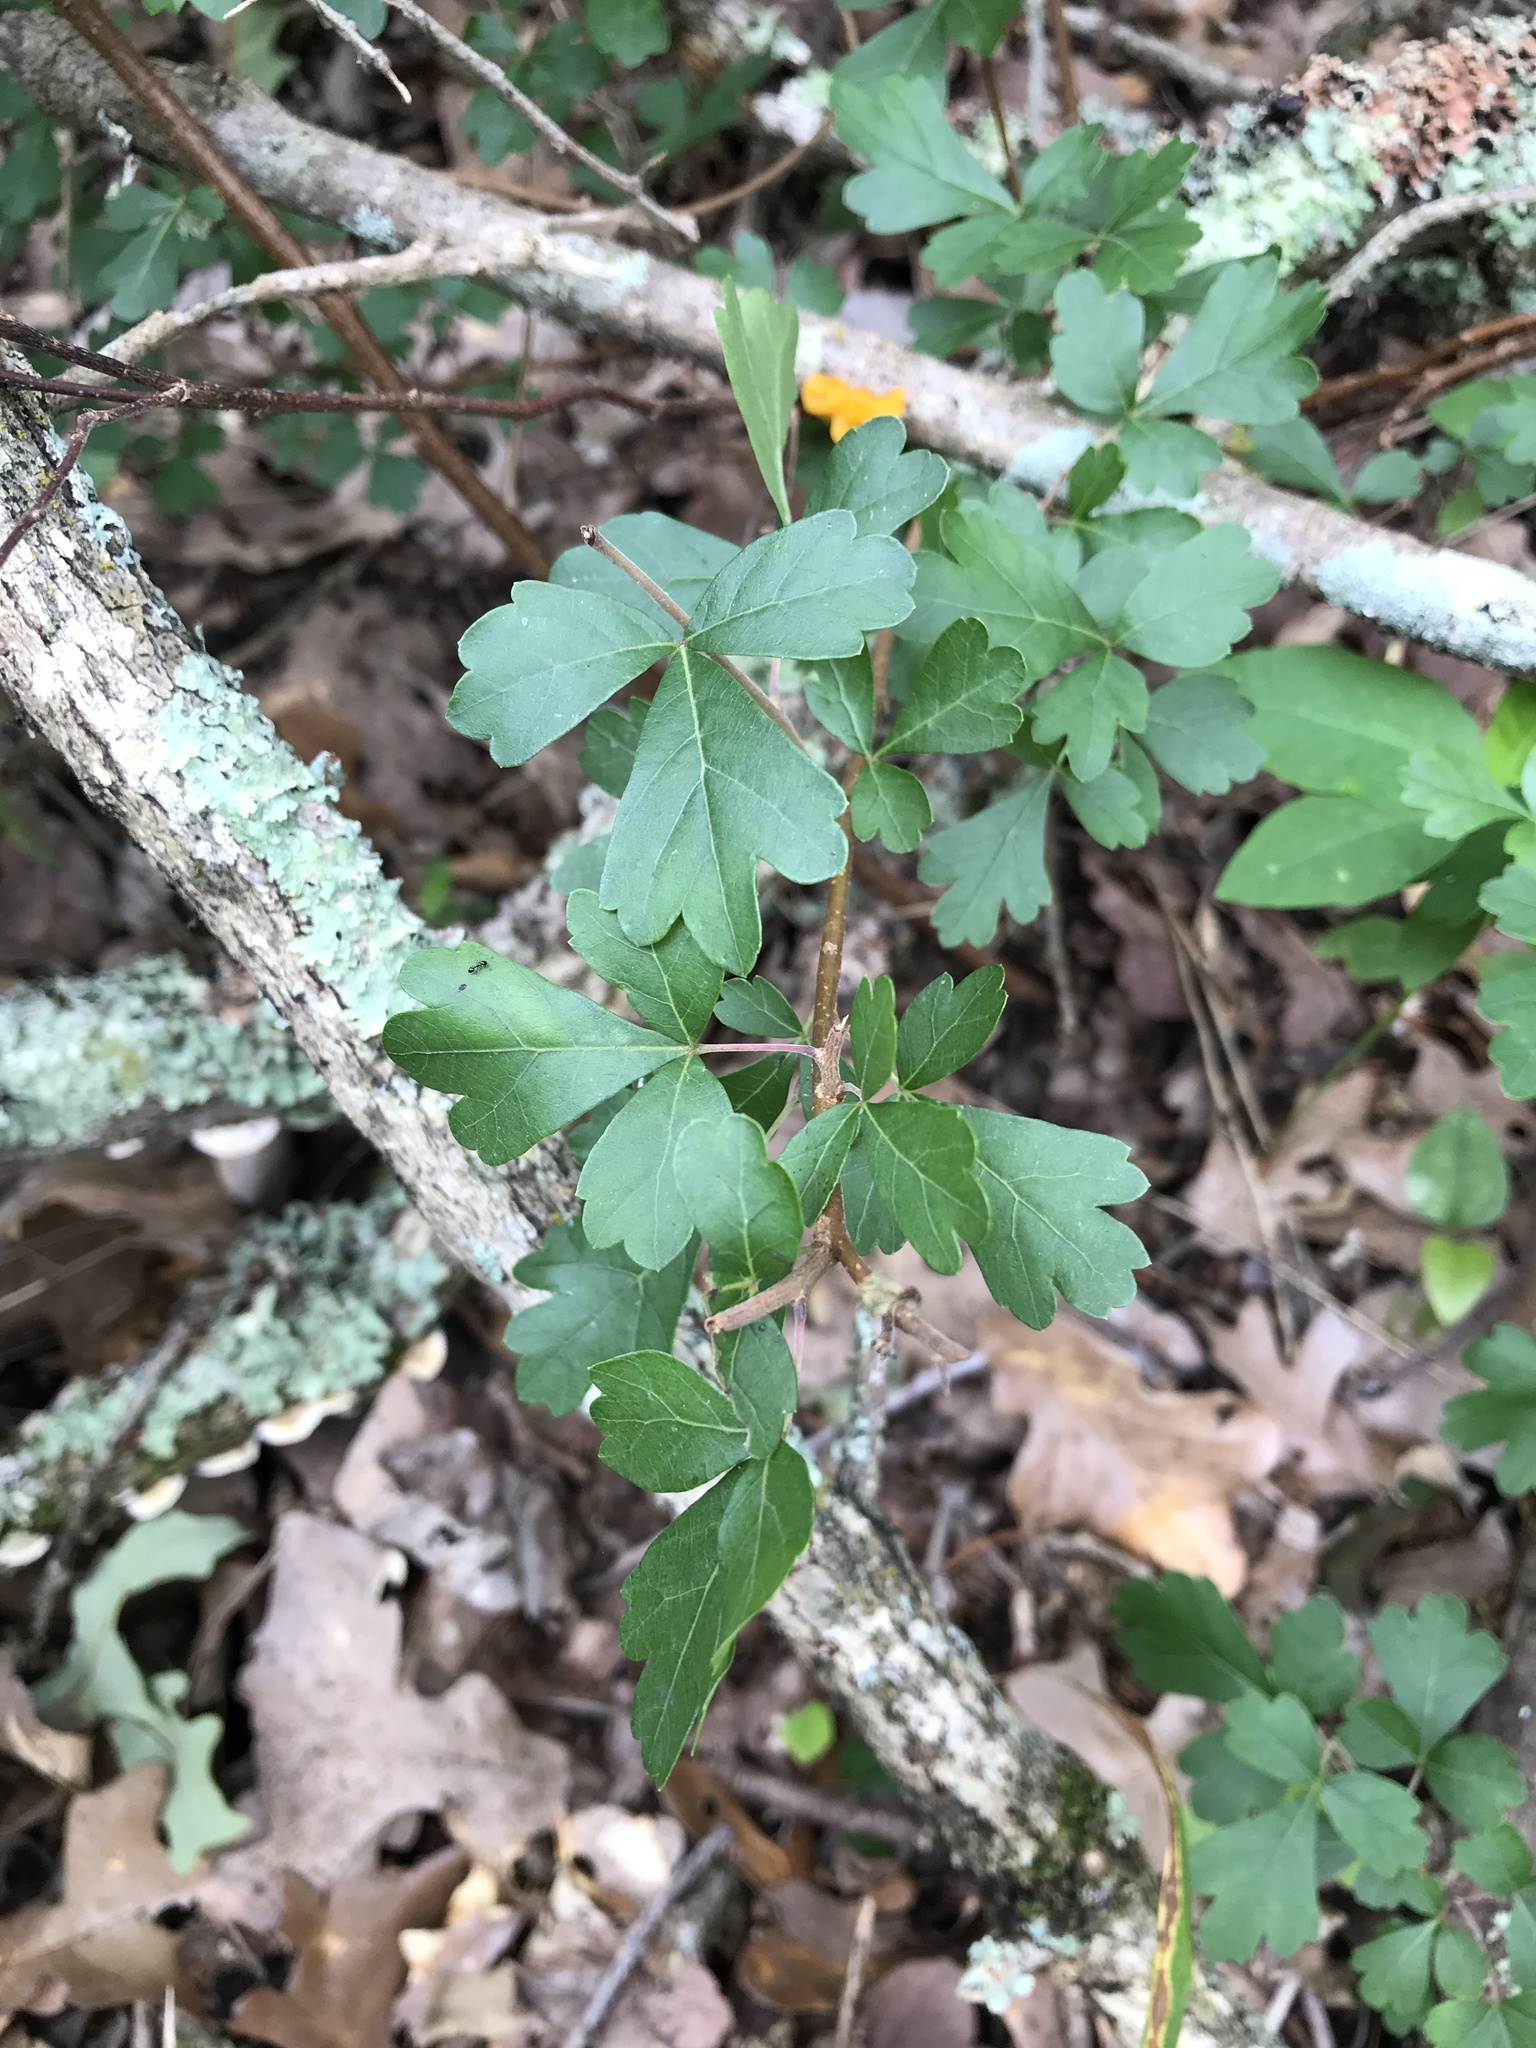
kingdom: Plantae
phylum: Tracheophyta
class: Magnoliopsida
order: Sapindales
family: Anacardiaceae
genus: Rhus
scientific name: Rhus aromatica
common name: Aromatic sumac
